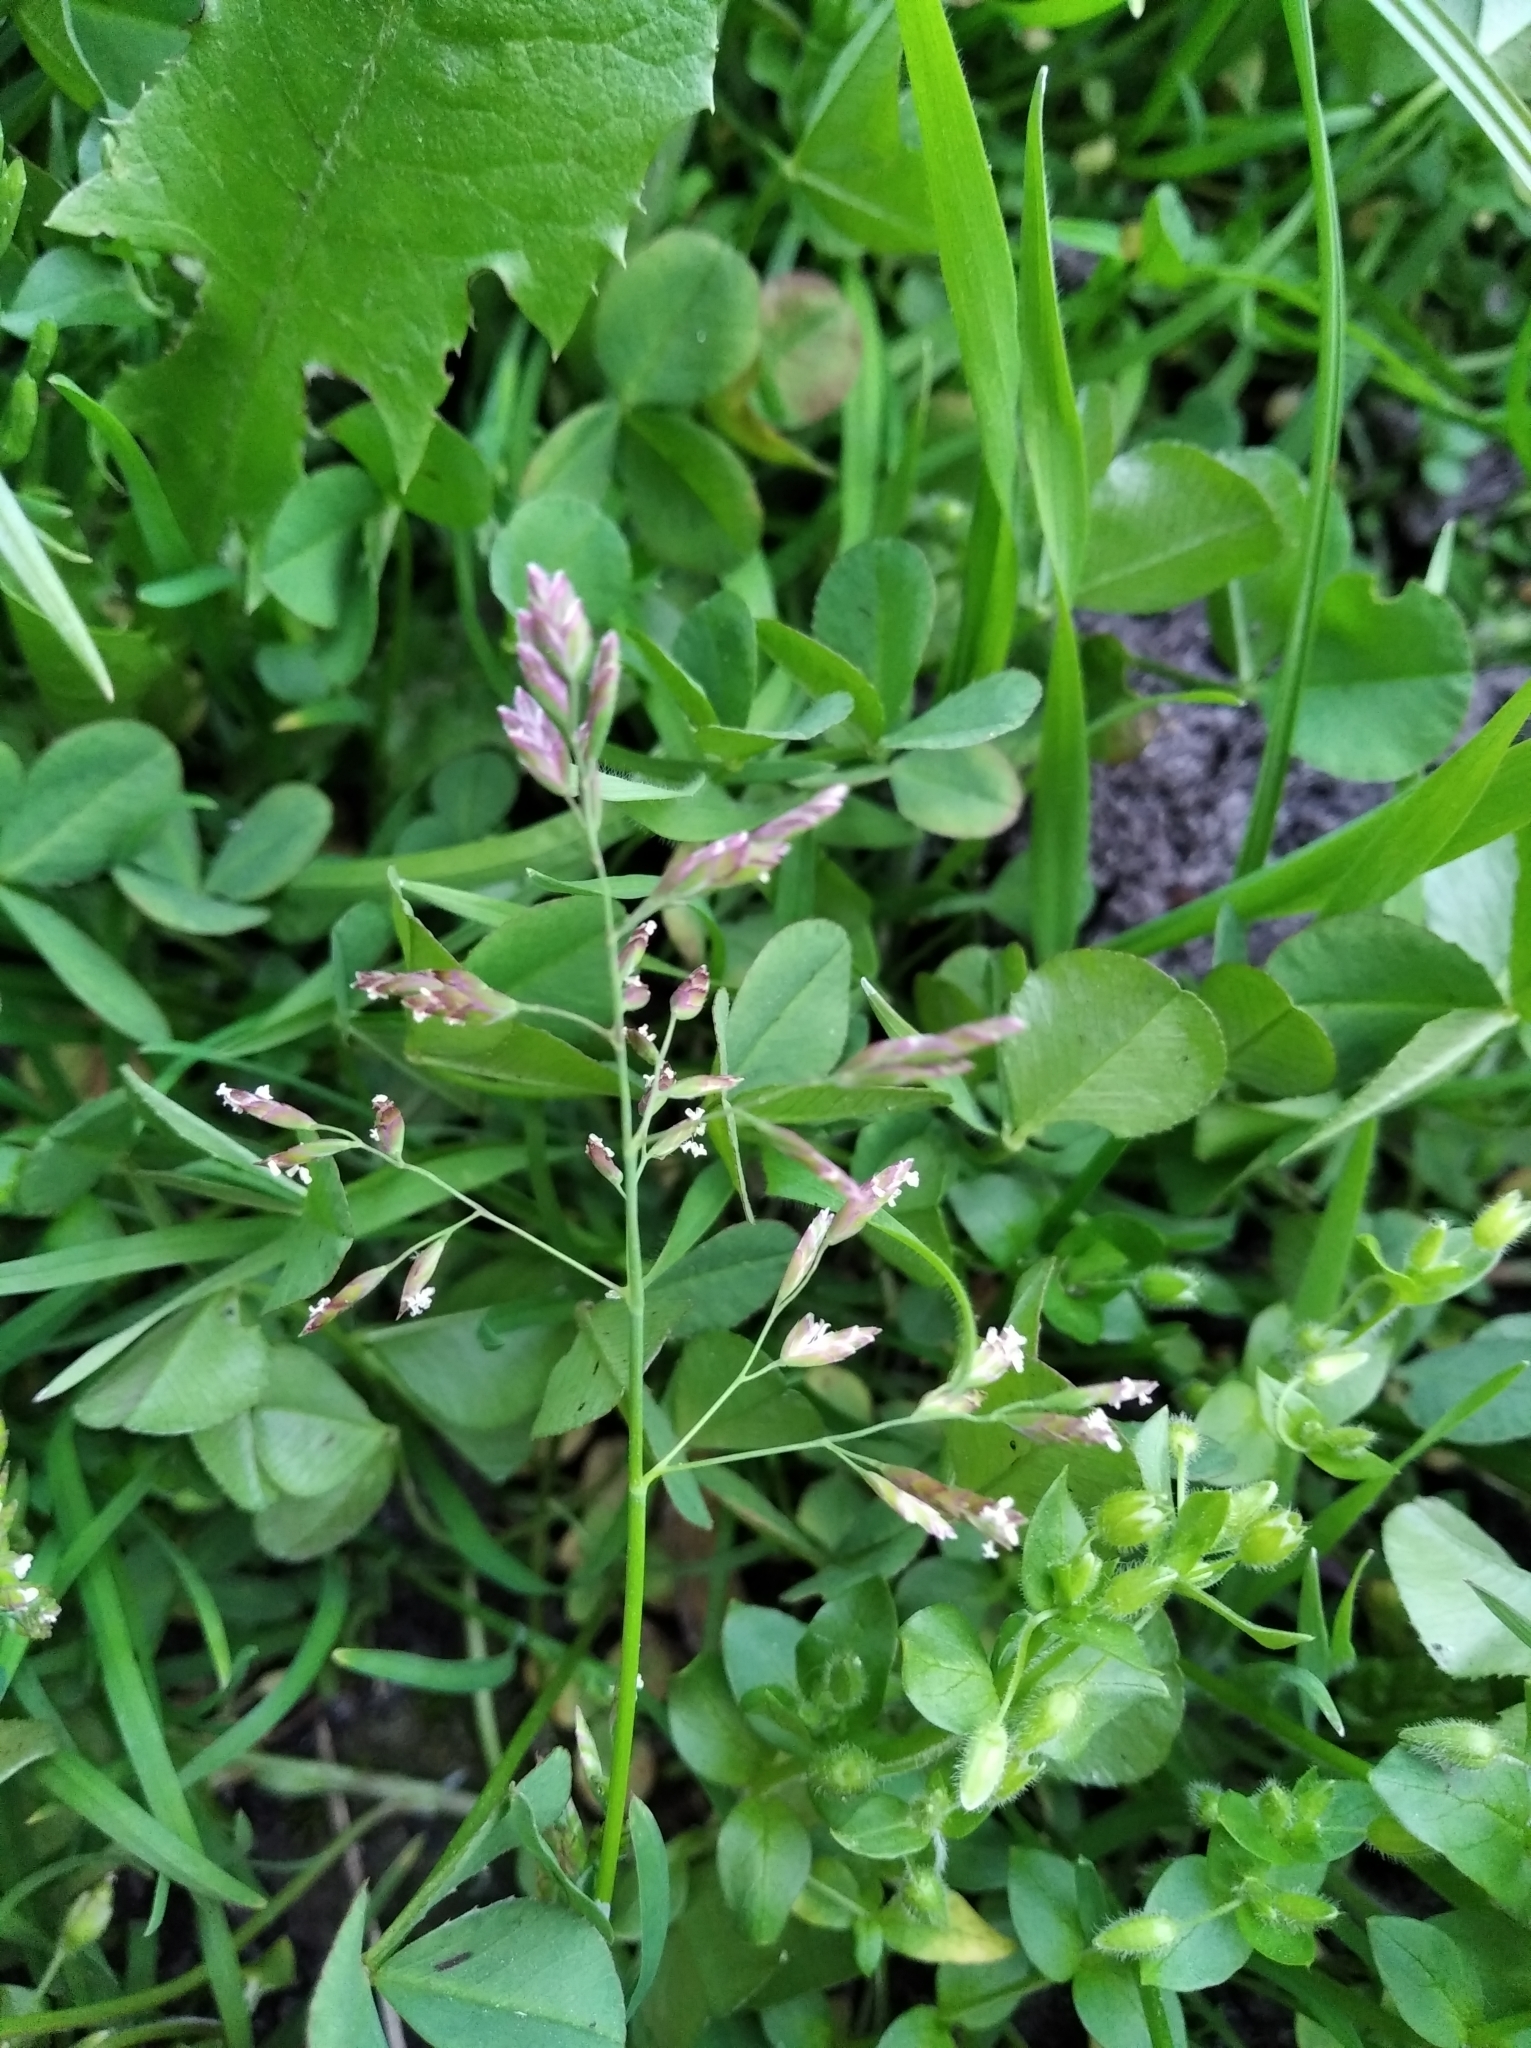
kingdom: Plantae
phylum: Tracheophyta
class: Liliopsida
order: Poales
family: Poaceae
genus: Poa
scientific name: Poa annua
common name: Annual bluegrass
